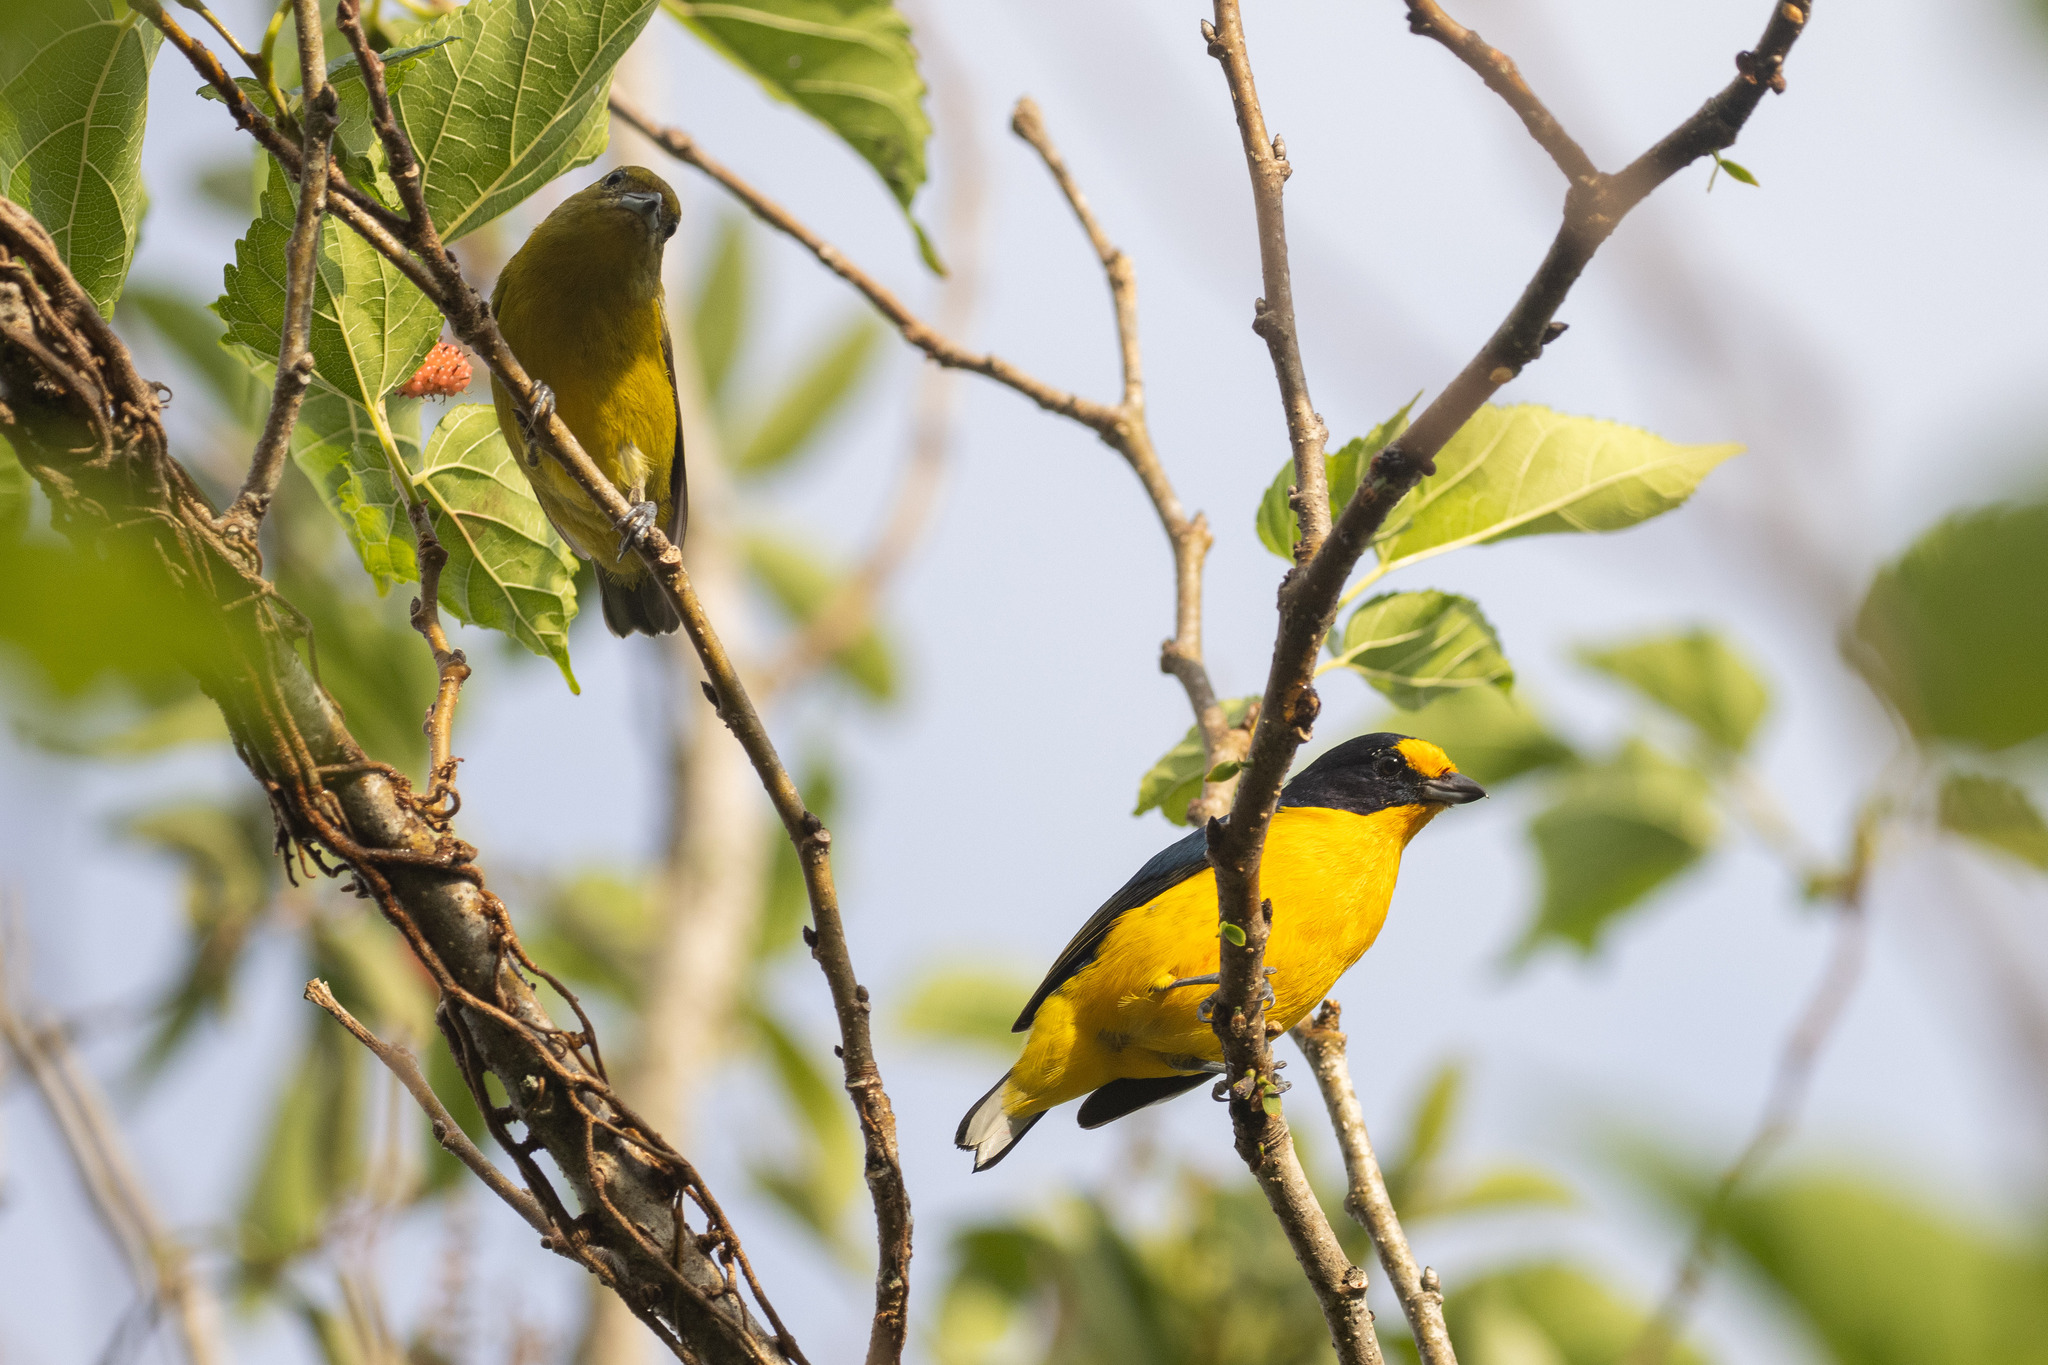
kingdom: Animalia
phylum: Chordata
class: Aves
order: Passeriformes
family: Fringillidae
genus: Euphonia
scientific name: Euphonia violacea
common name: Violaceous euphonia
